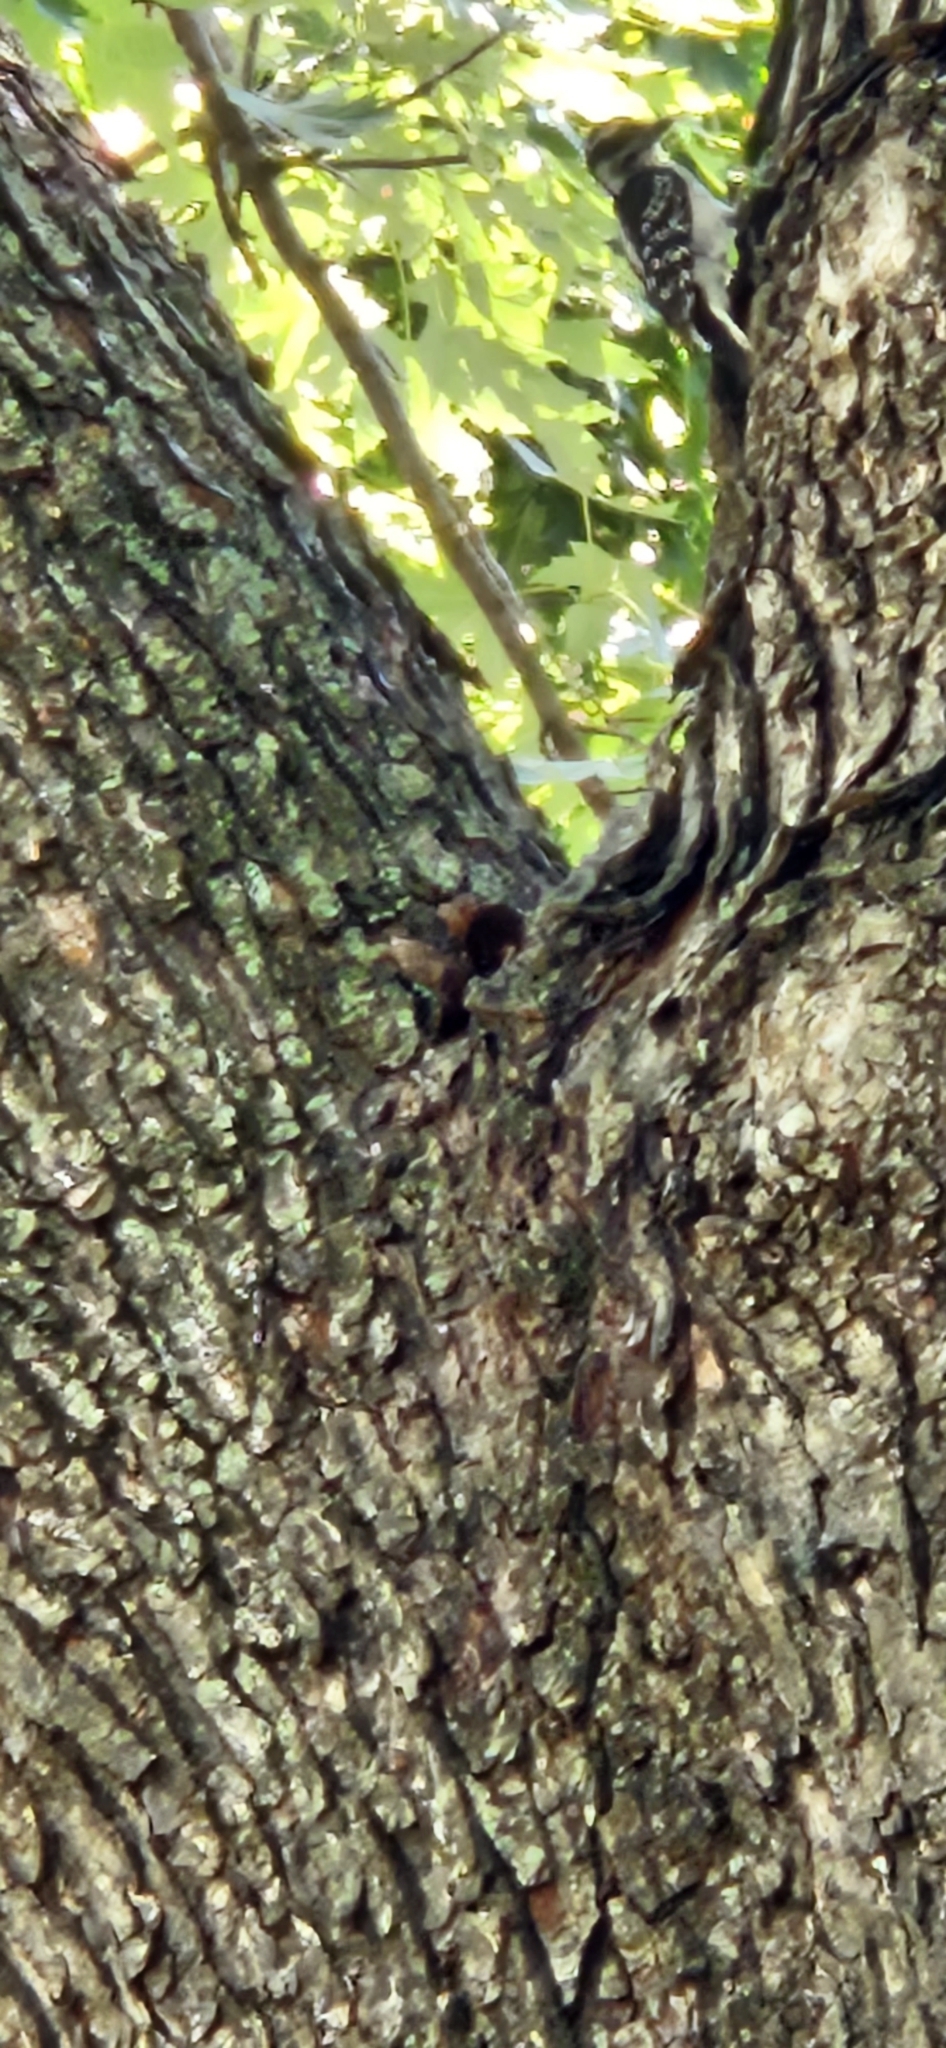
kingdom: Animalia
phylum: Chordata
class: Aves
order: Piciformes
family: Picidae
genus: Dryobates
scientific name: Dryobates pubescens
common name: Downy woodpecker
